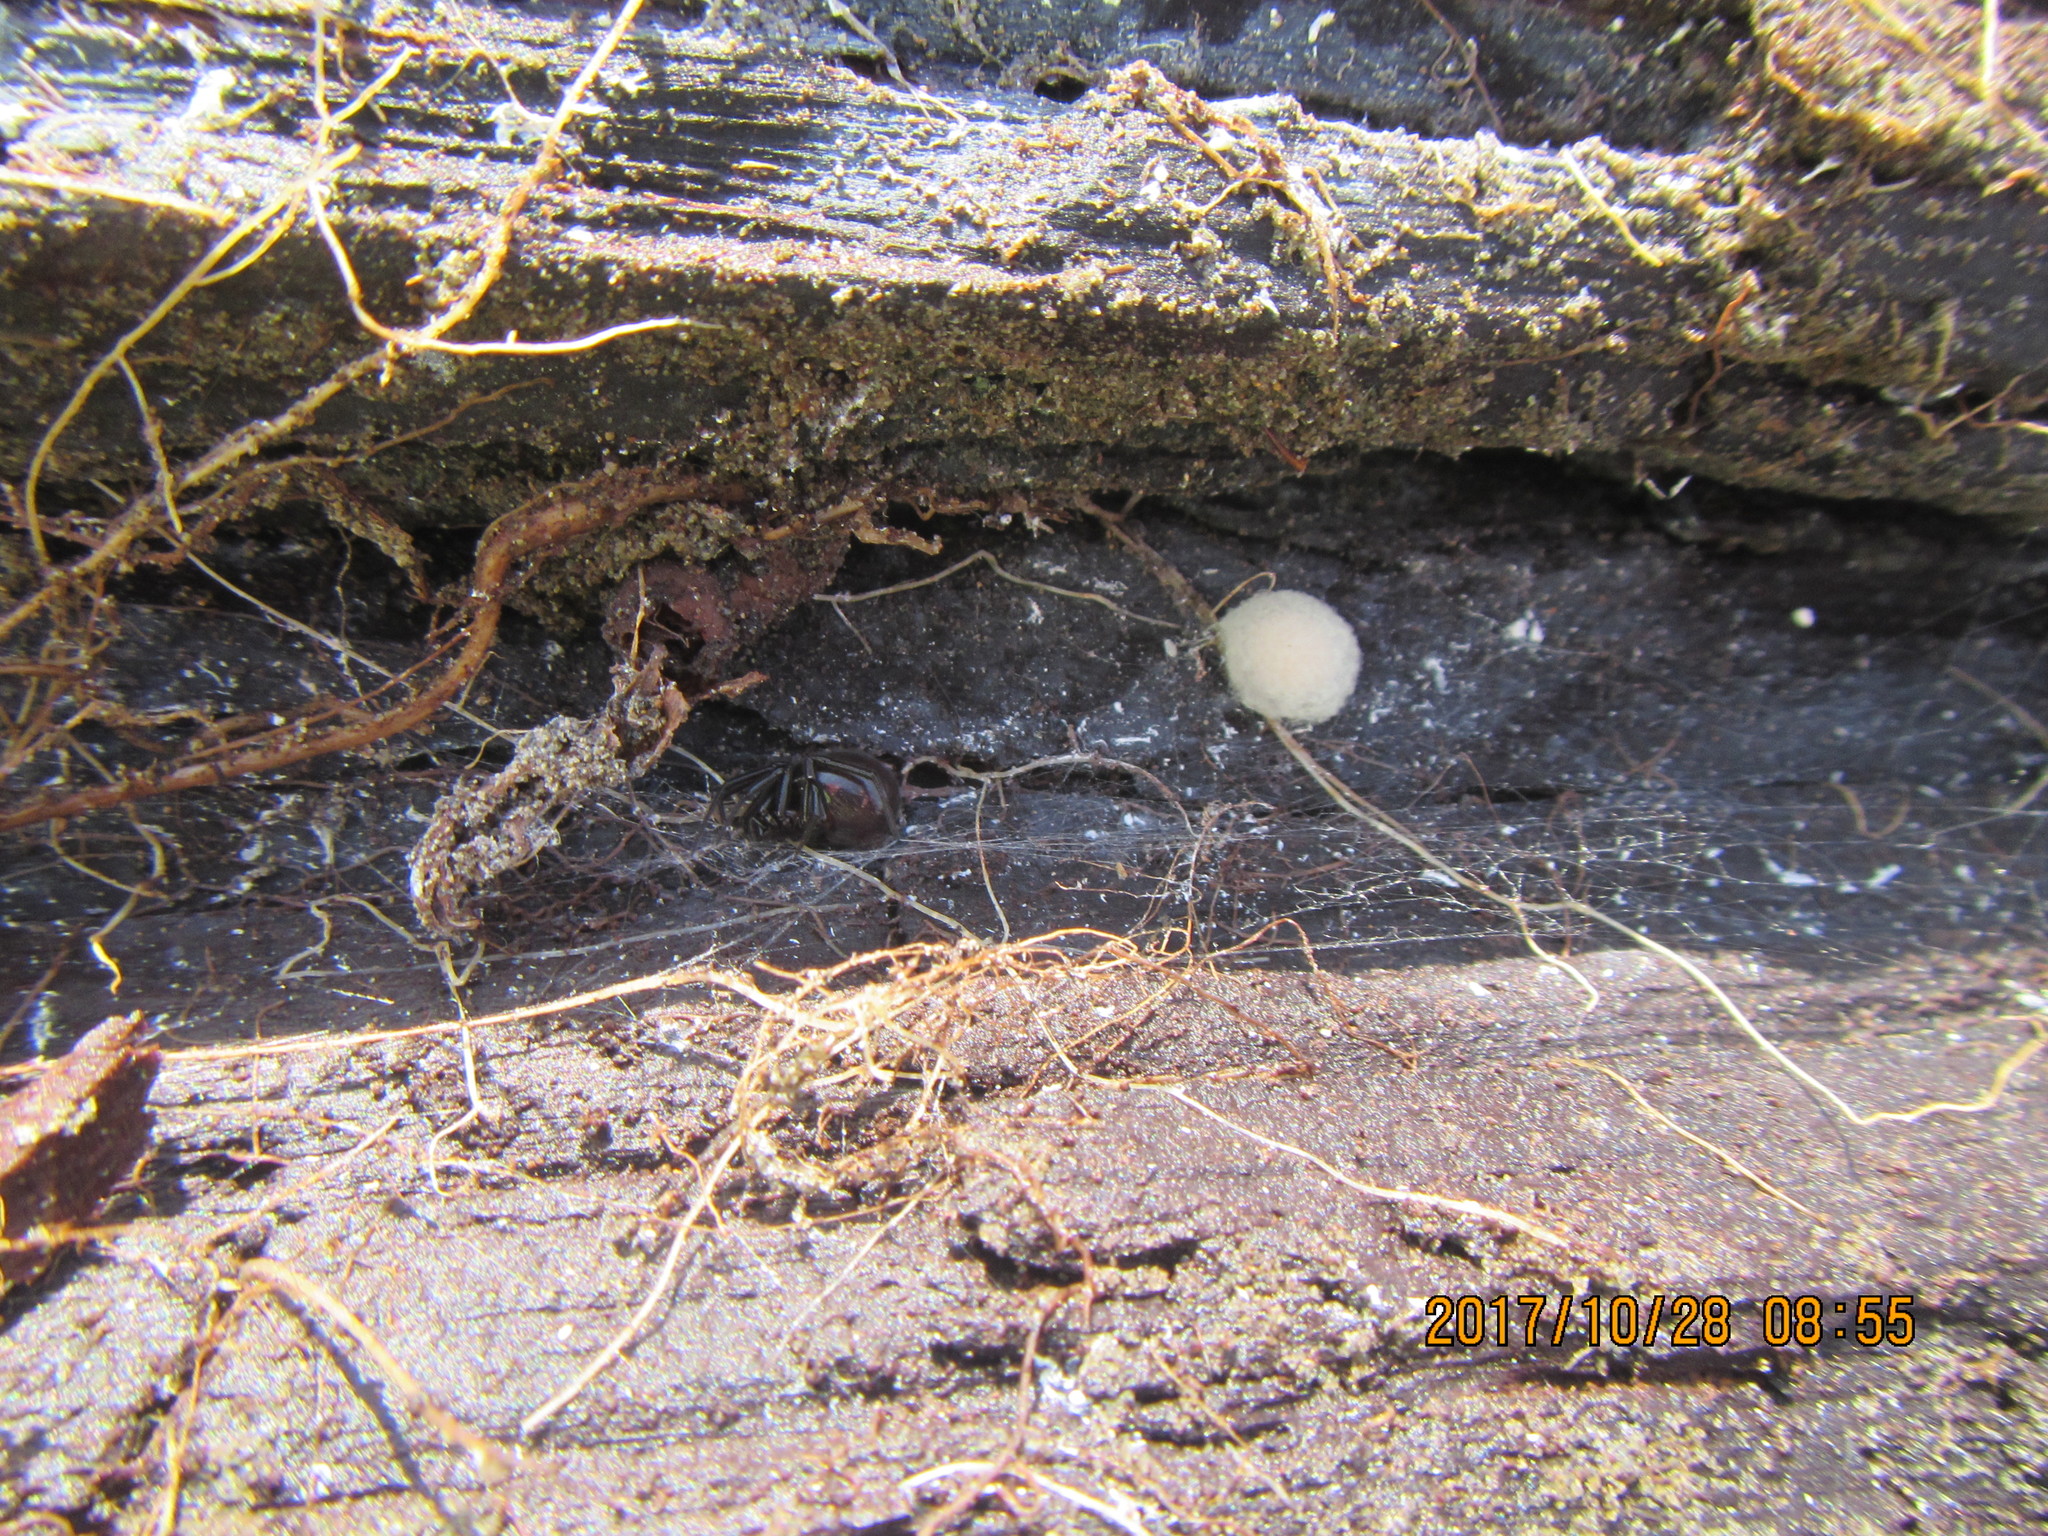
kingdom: Animalia
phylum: Arthropoda
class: Arachnida
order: Araneae
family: Theridiidae
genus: Steatoda
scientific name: Steatoda capensis
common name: Cobweb weaver
